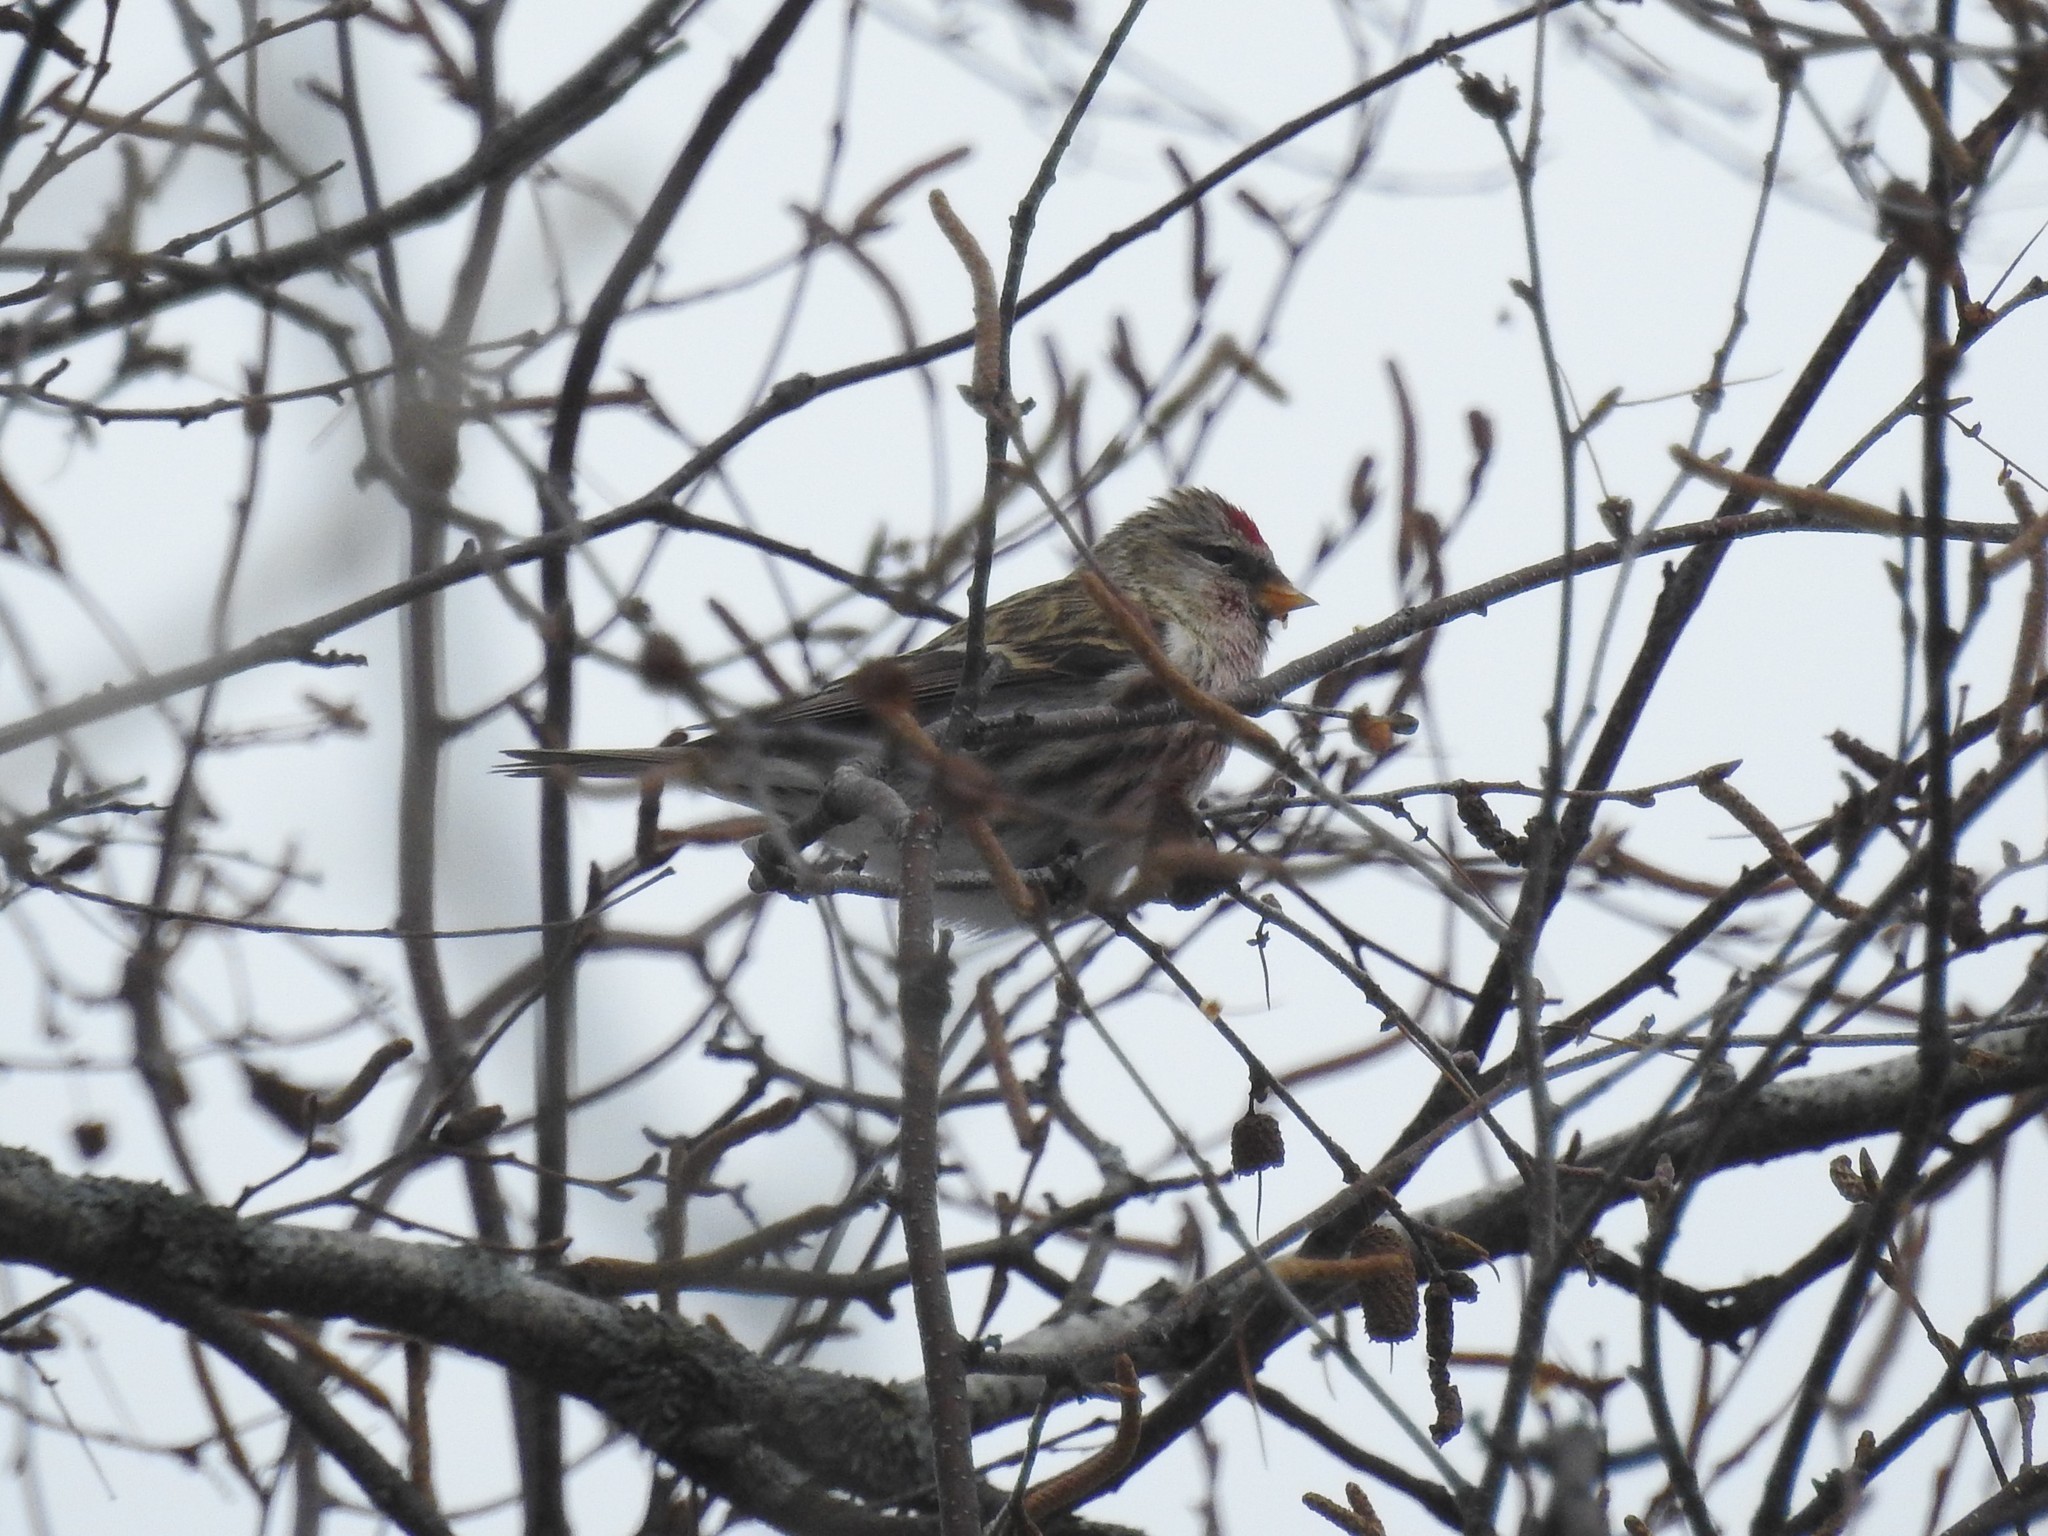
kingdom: Animalia
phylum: Chordata
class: Aves
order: Passeriformes
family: Fringillidae
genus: Acanthis
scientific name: Acanthis flammea
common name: Common redpoll
